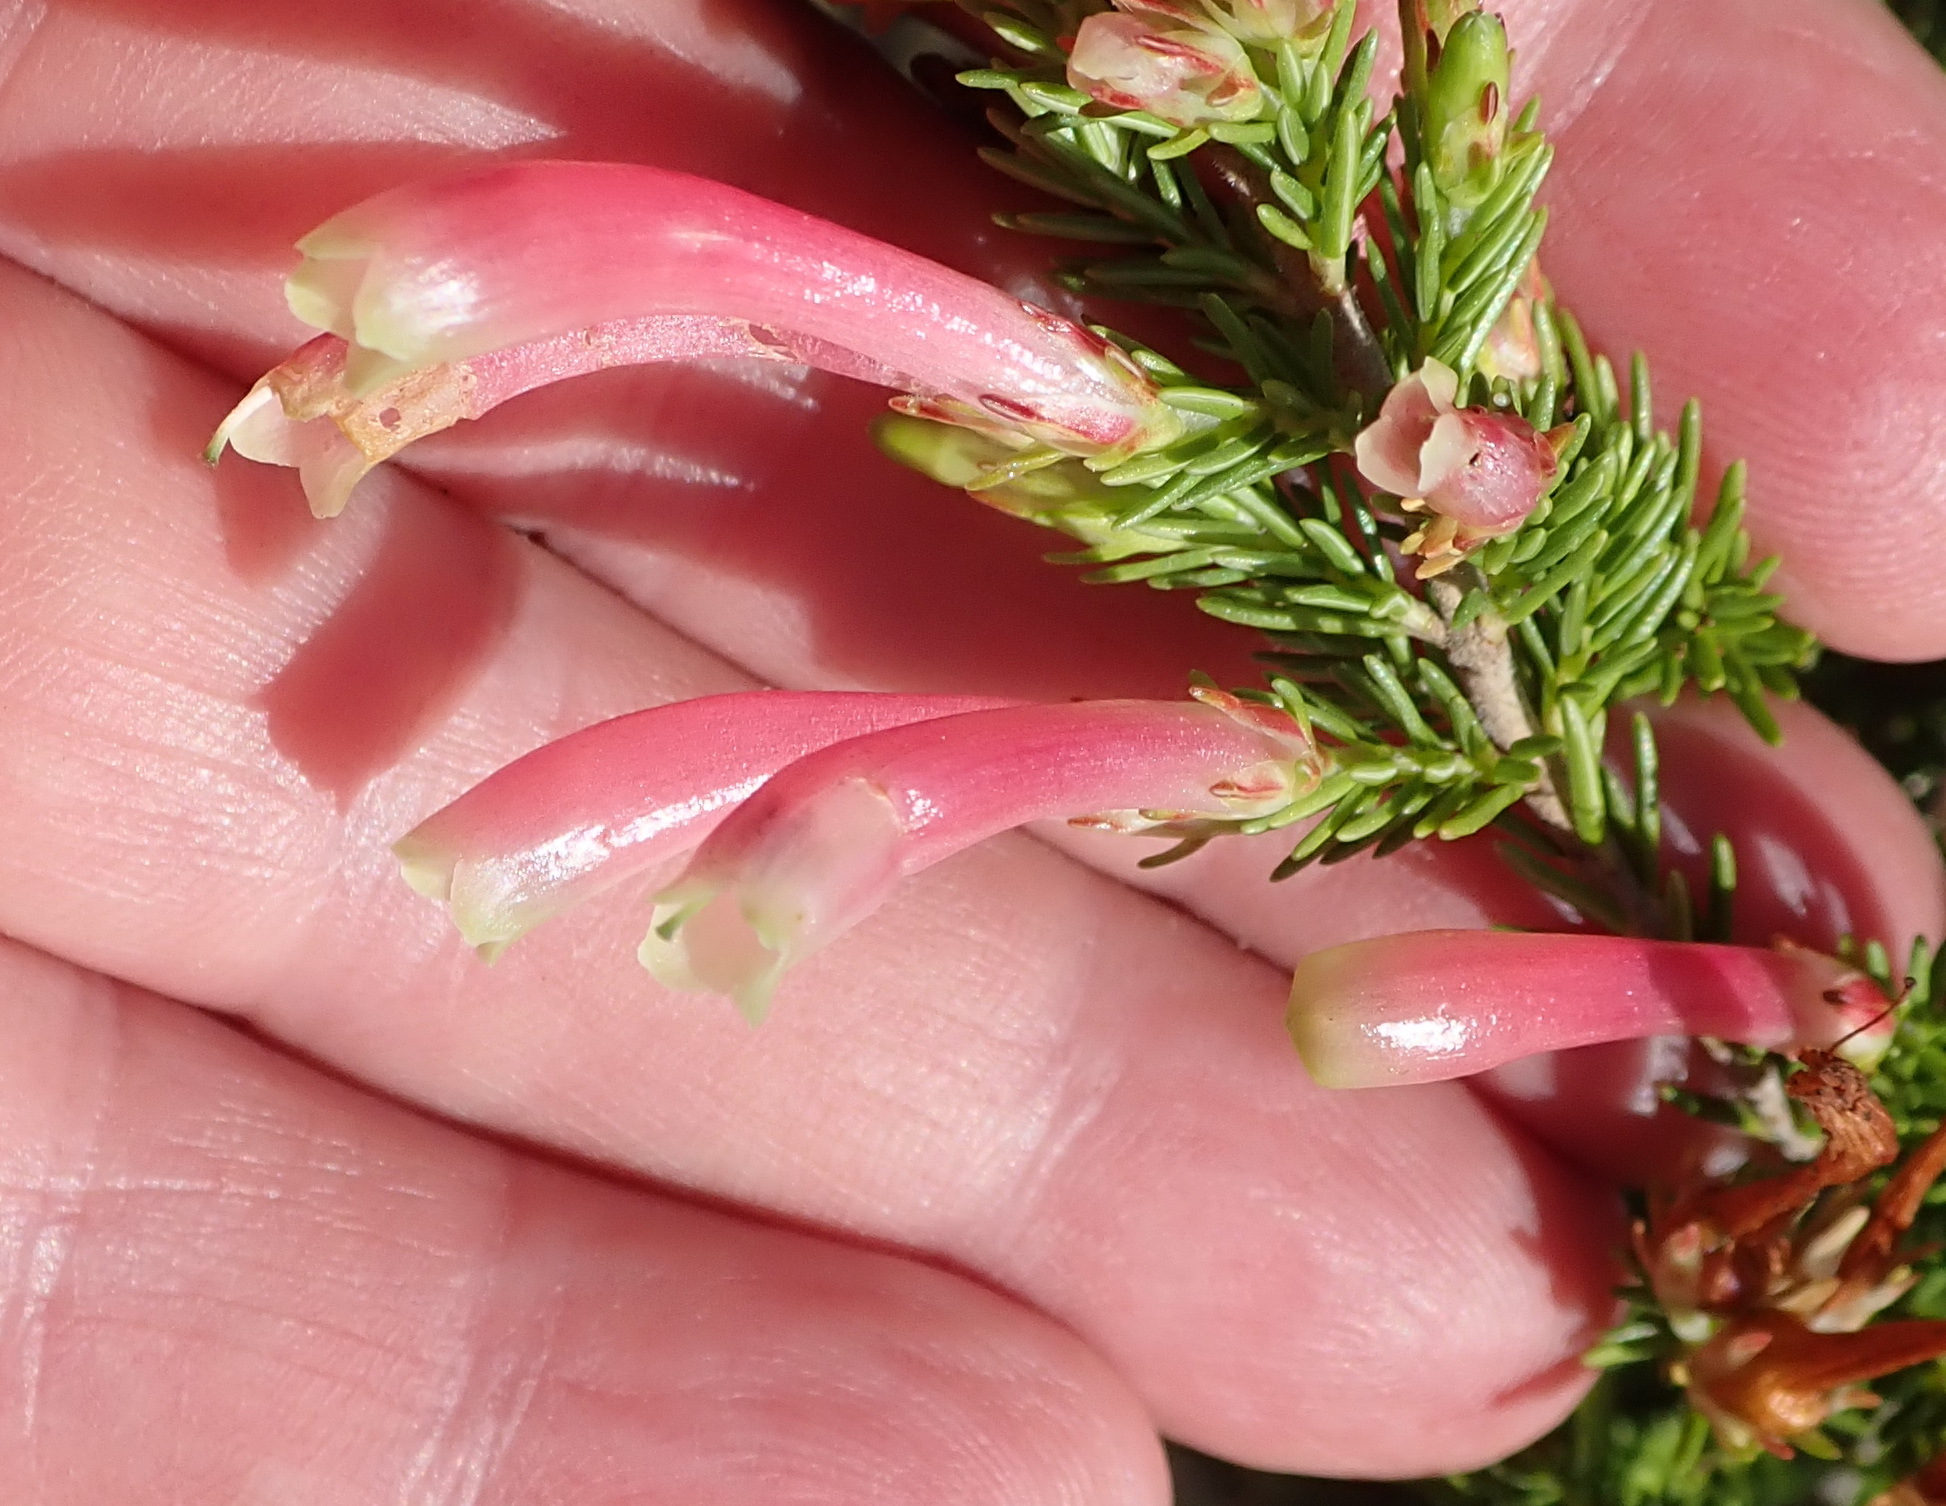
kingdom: Plantae
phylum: Tracheophyta
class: Magnoliopsida
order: Ericales
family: Ericaceae
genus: Erica
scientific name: Erica discolor
